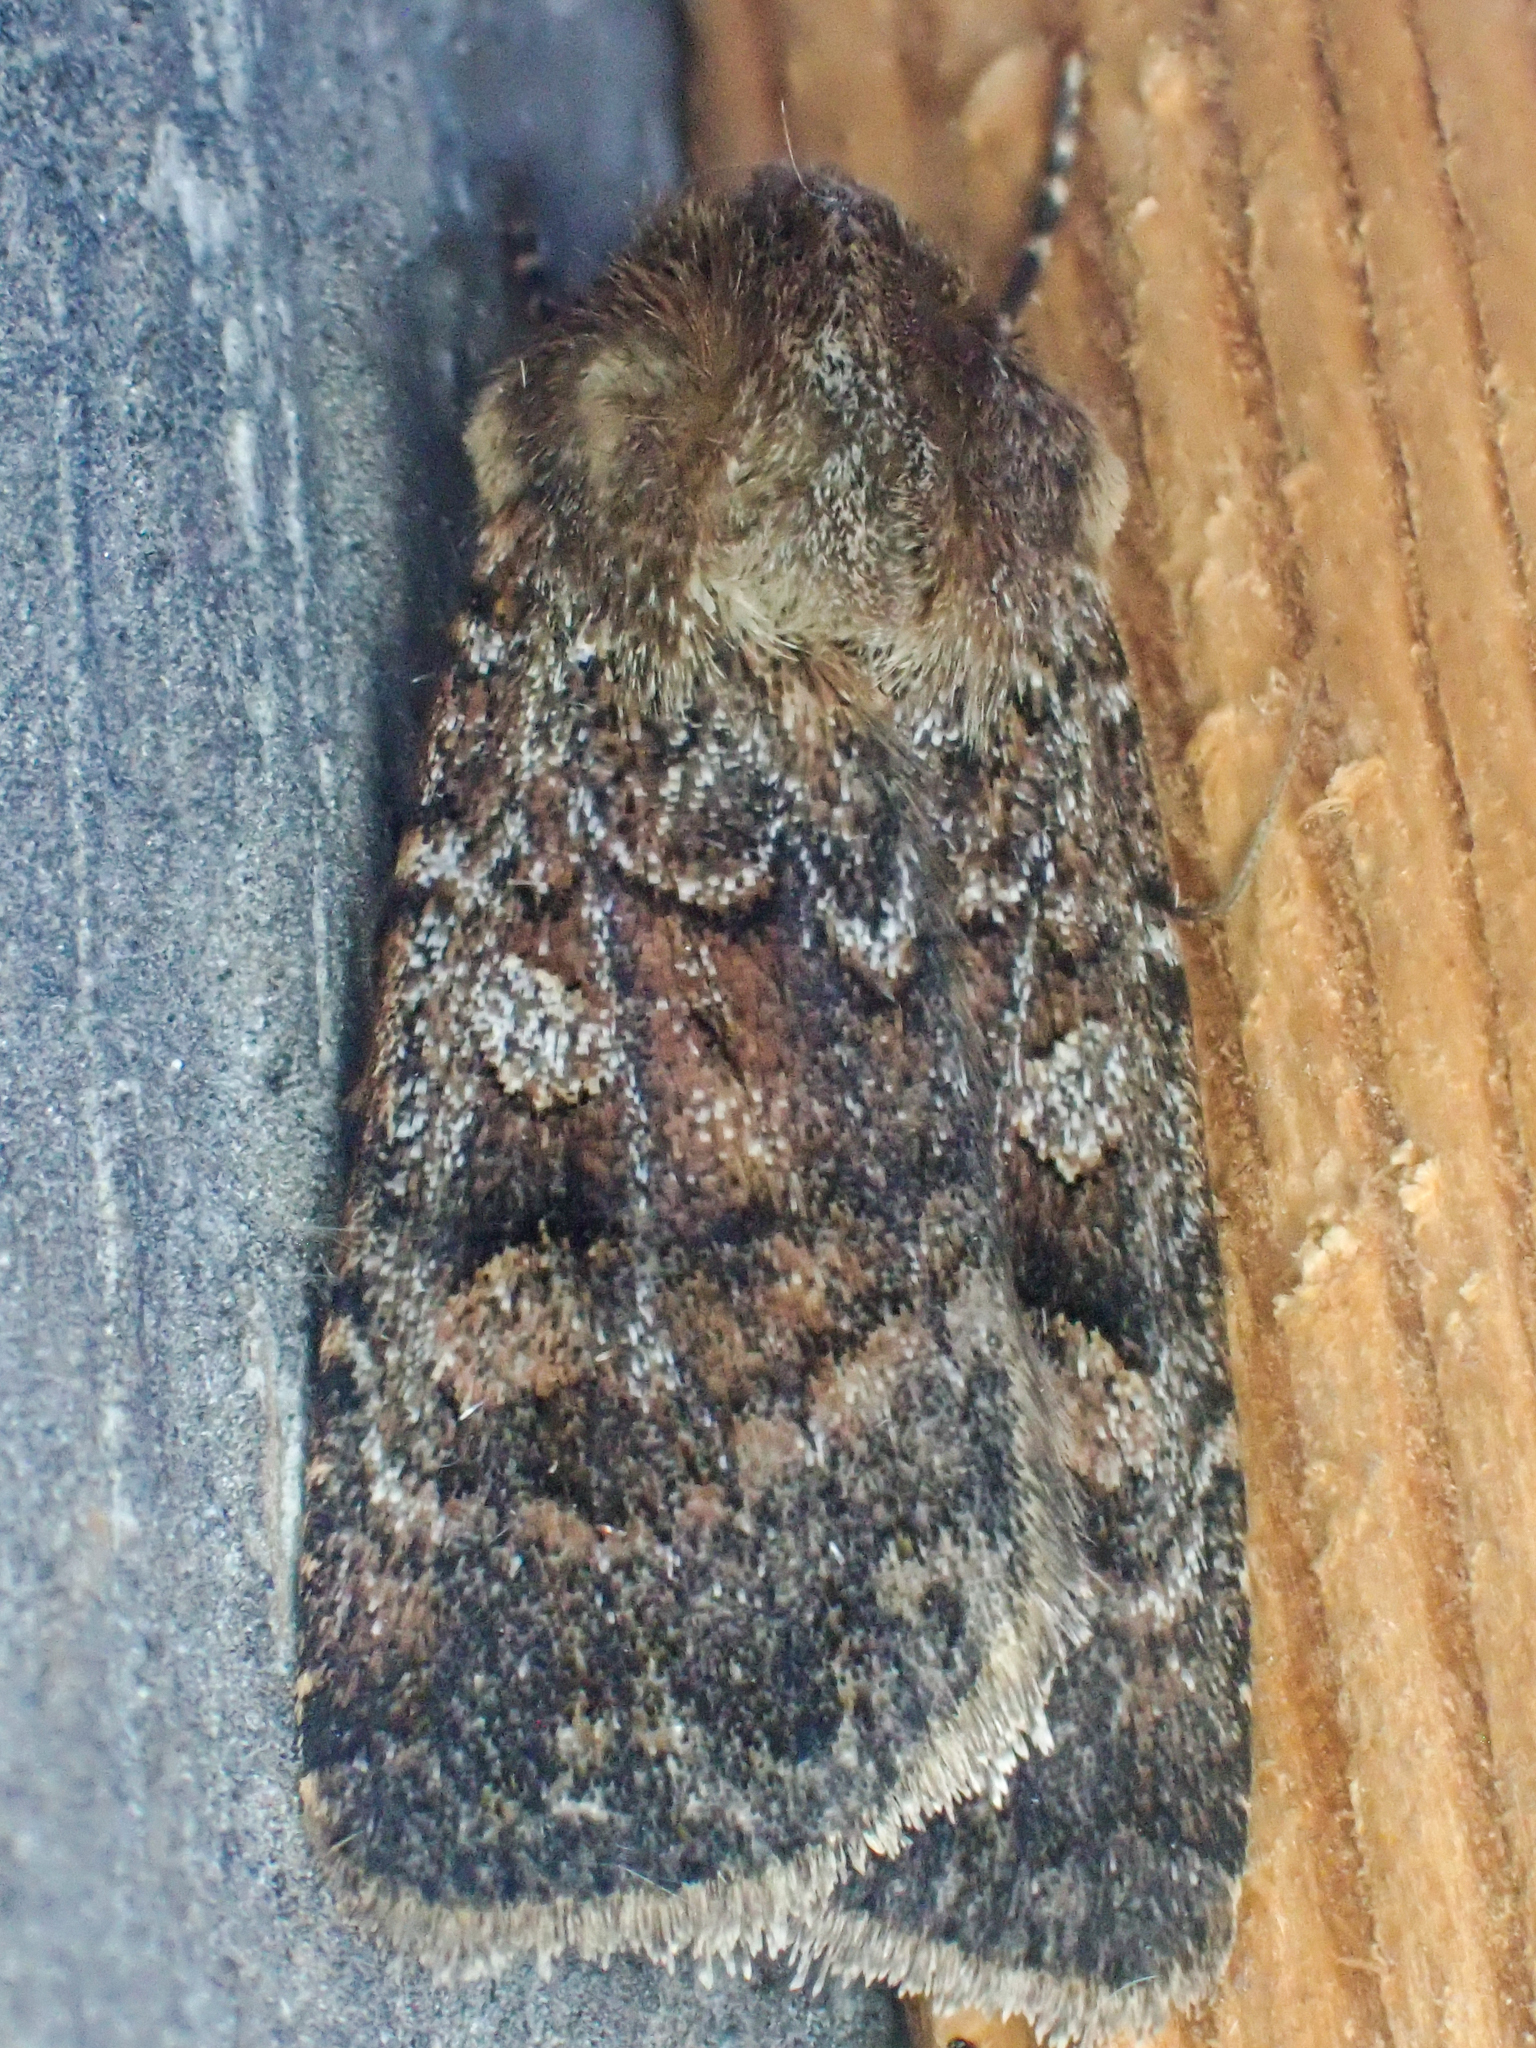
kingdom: Animalia
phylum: Arthropoda
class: Insecta
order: Lepidoptera
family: Noctuidae
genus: Euxoa
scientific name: Euxoa intrita
